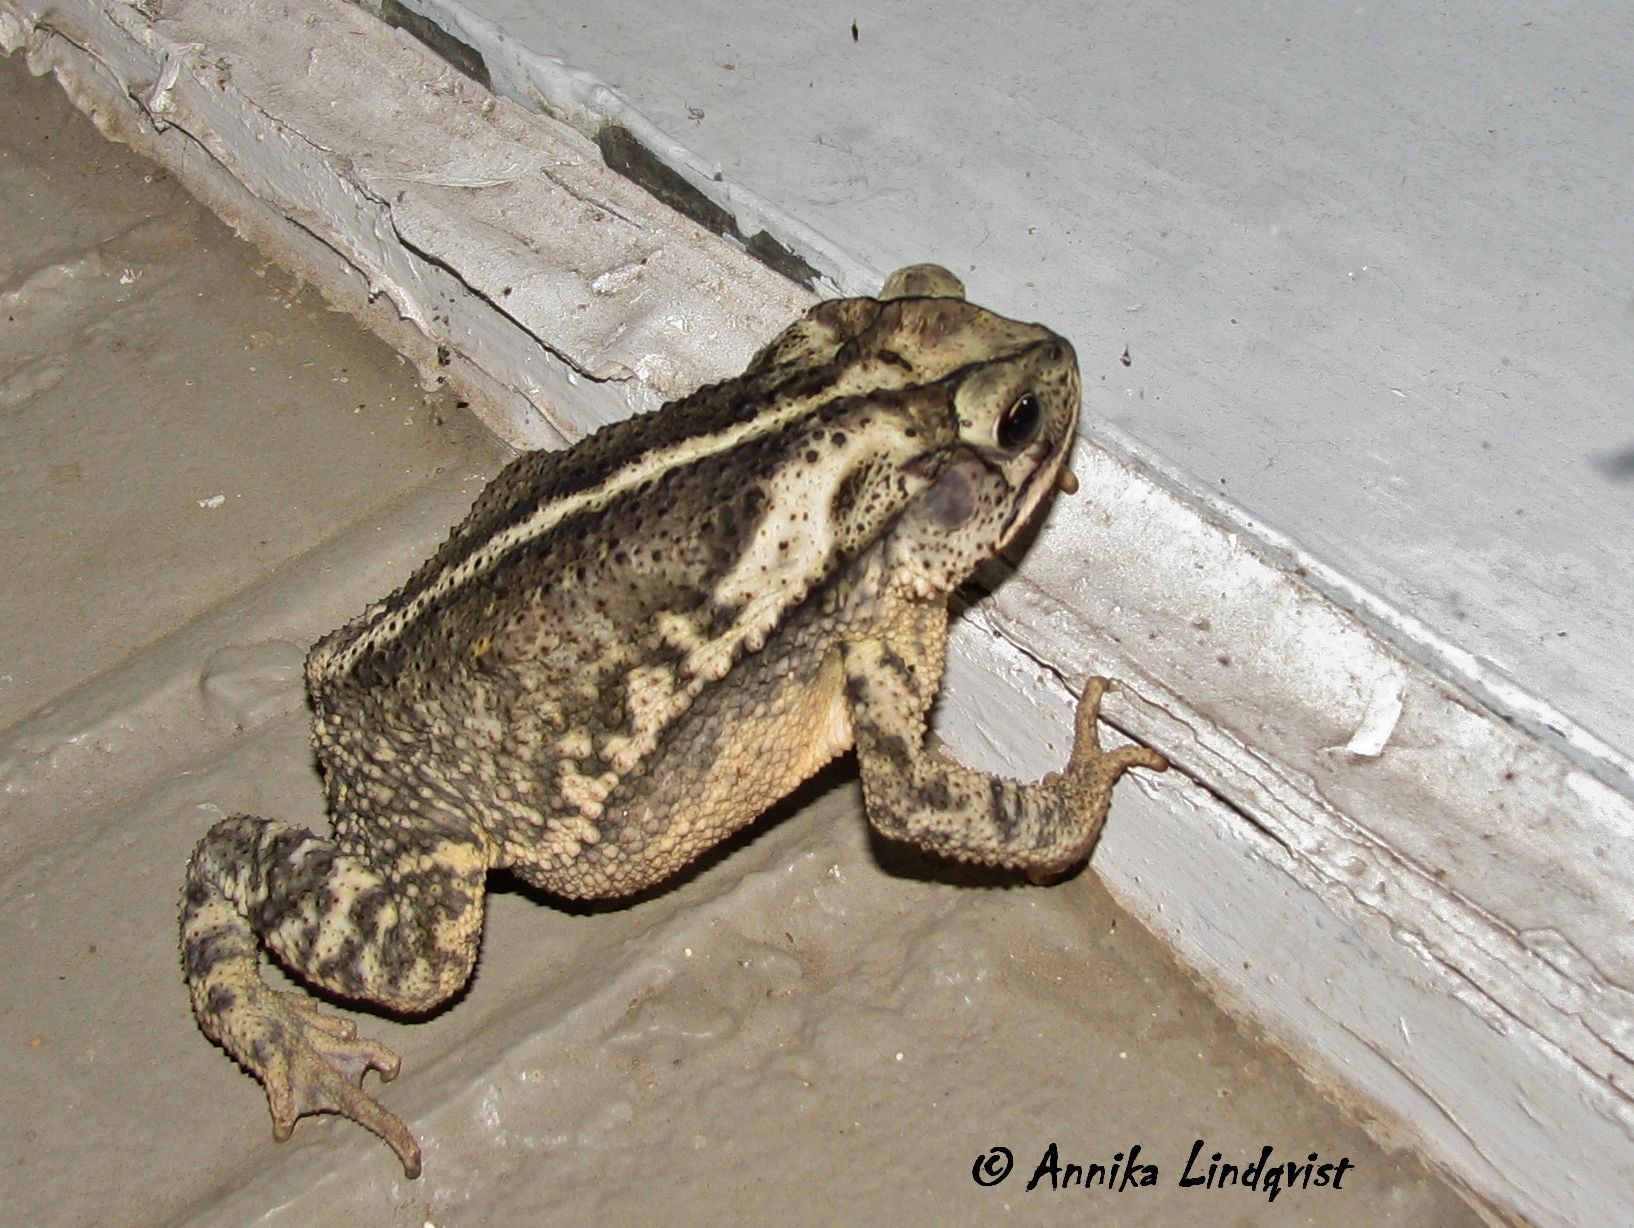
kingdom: Animalia
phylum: Chordata
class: Amphibia
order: Anura
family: Bufonidae
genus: Incilius
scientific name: Incilius nebulifer
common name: Gulf coast toad
